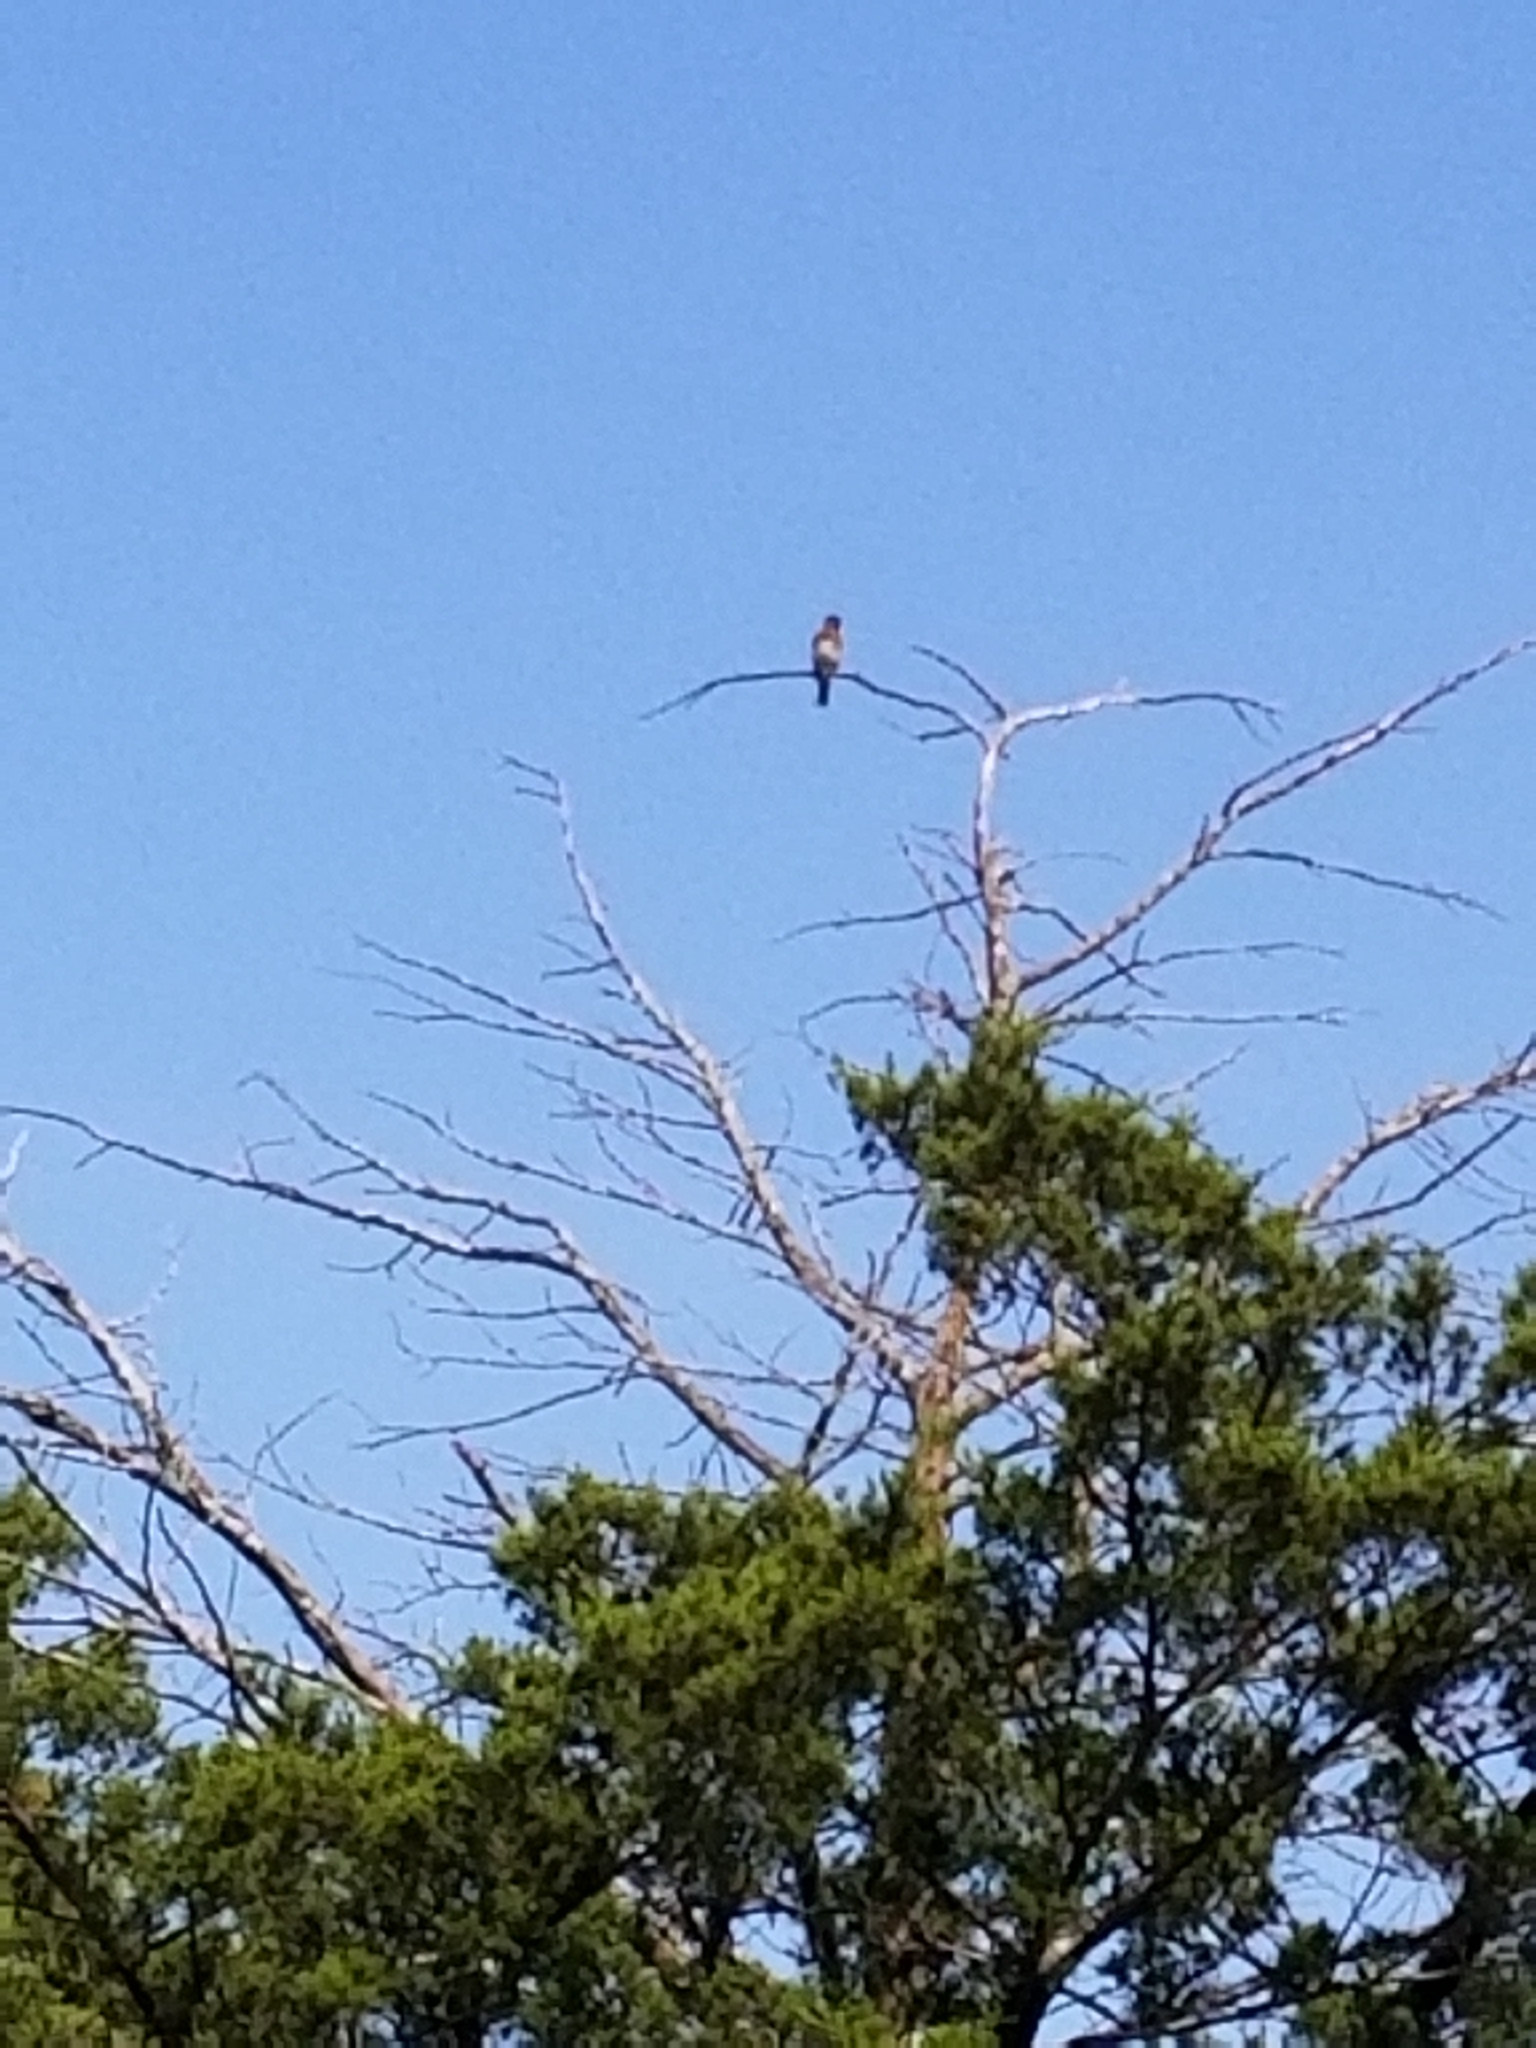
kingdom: Animalia
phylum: Chordata
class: Aves
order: Passeriformes
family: Turdidae
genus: Sialia
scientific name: Sialia sialis
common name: Eastern bluebird
